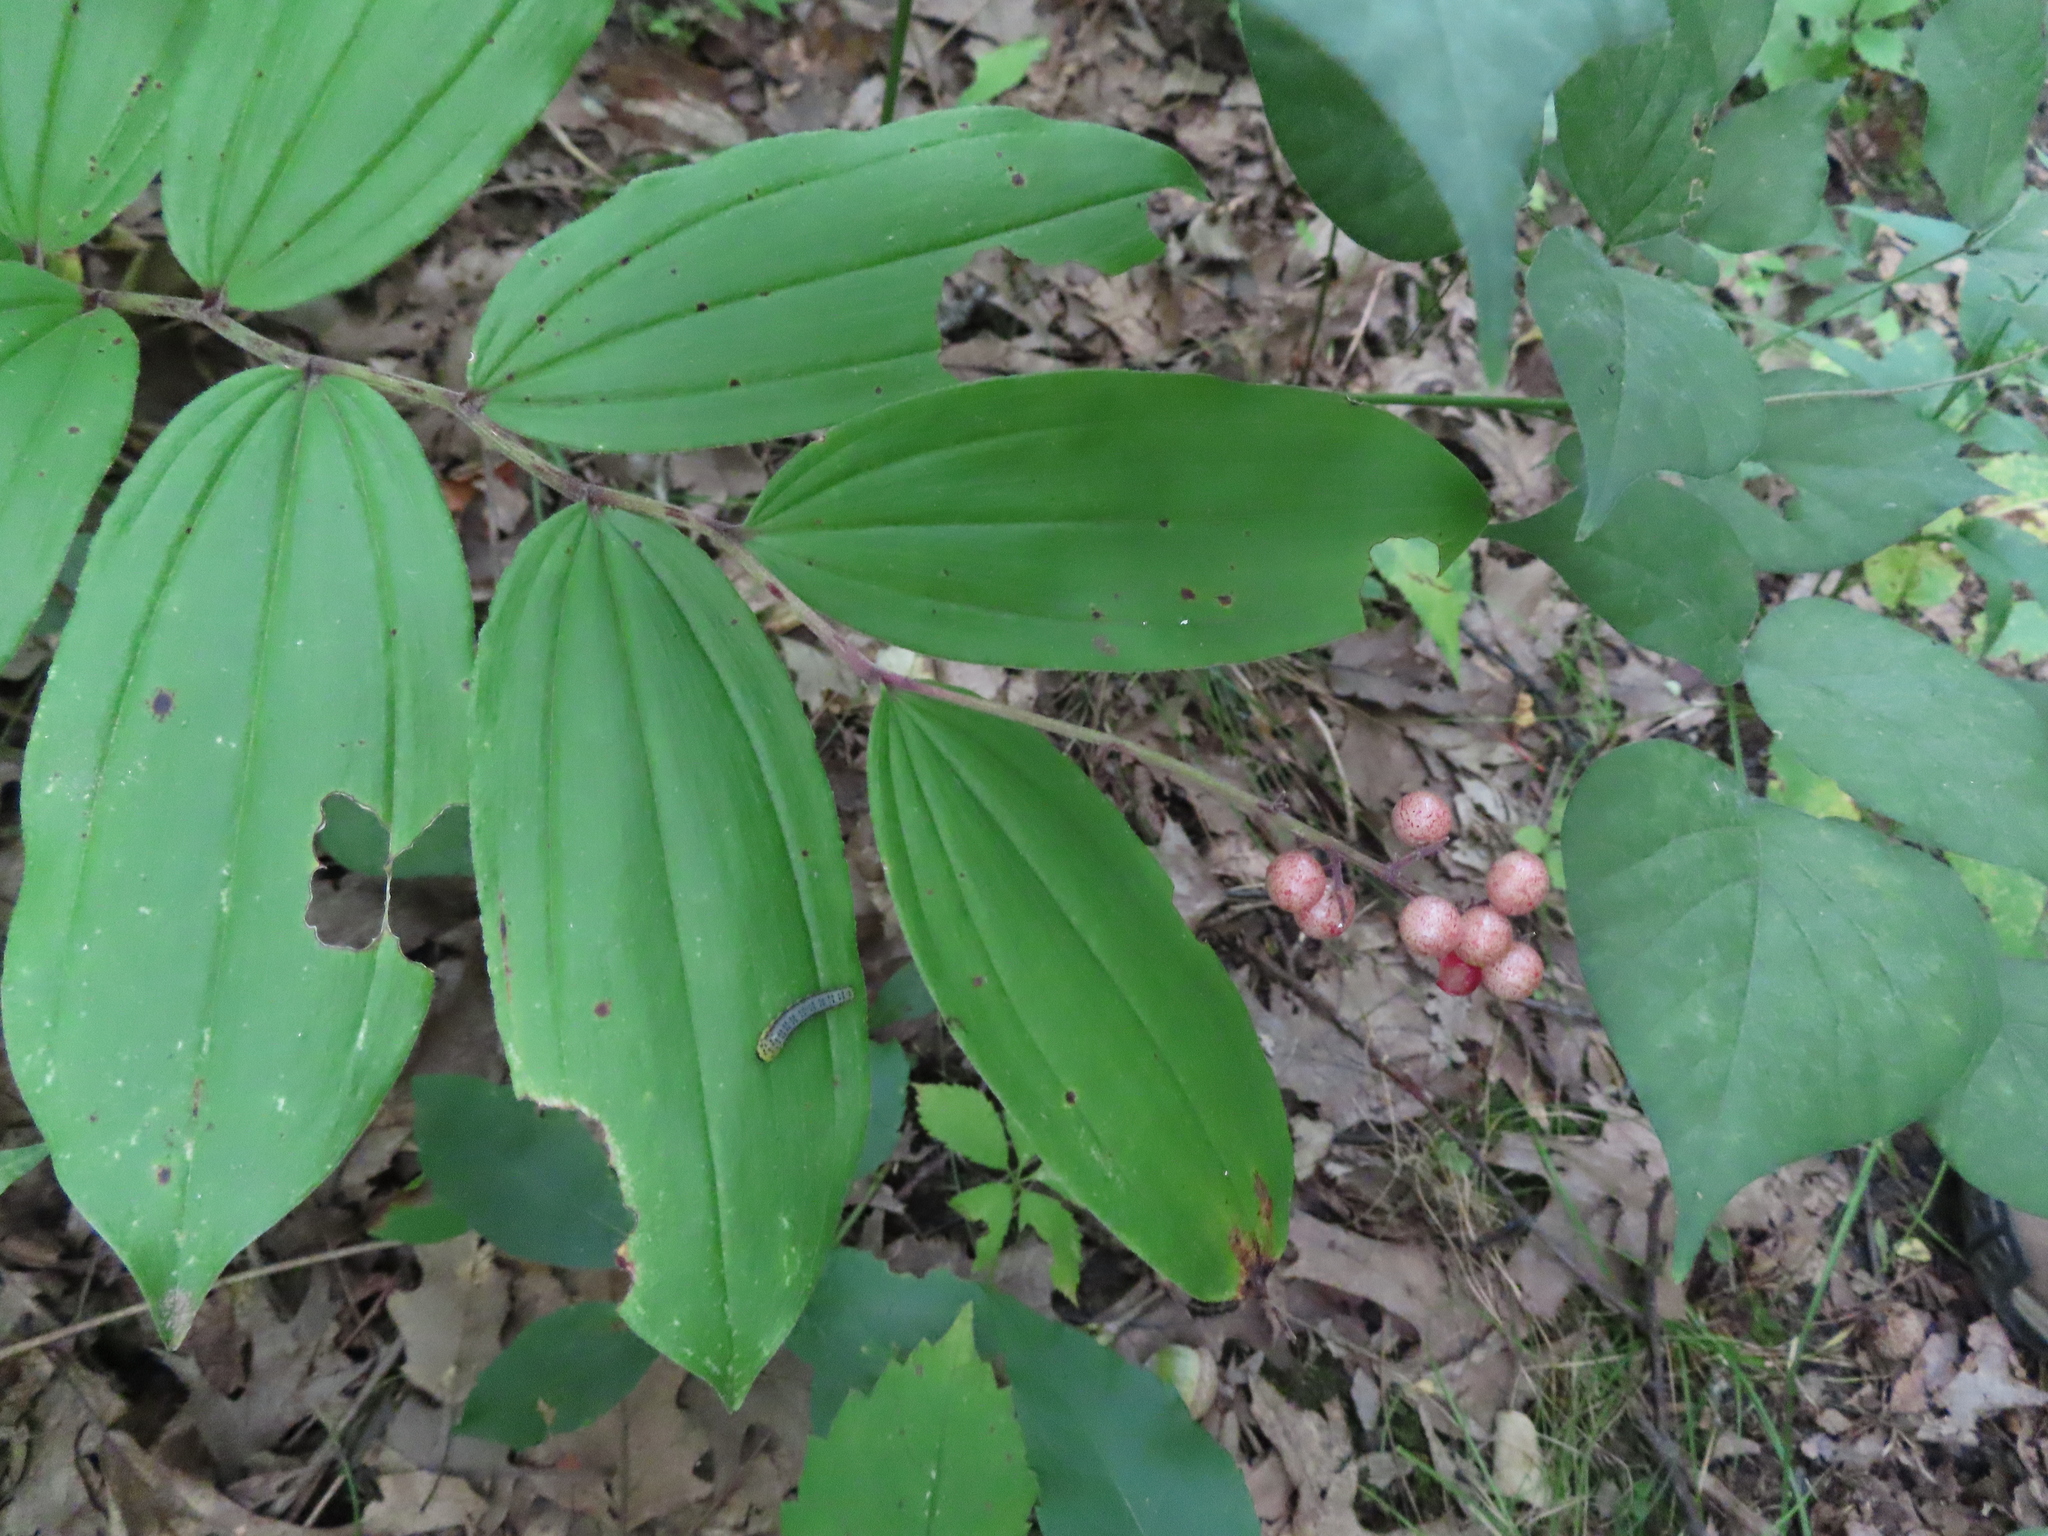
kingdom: Plantae
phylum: Tracheophyta
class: Liliopsida
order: Asparagales
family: Asparagaceae
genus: Maianthemum
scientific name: Maianthemum racemosum
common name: False spikenard
